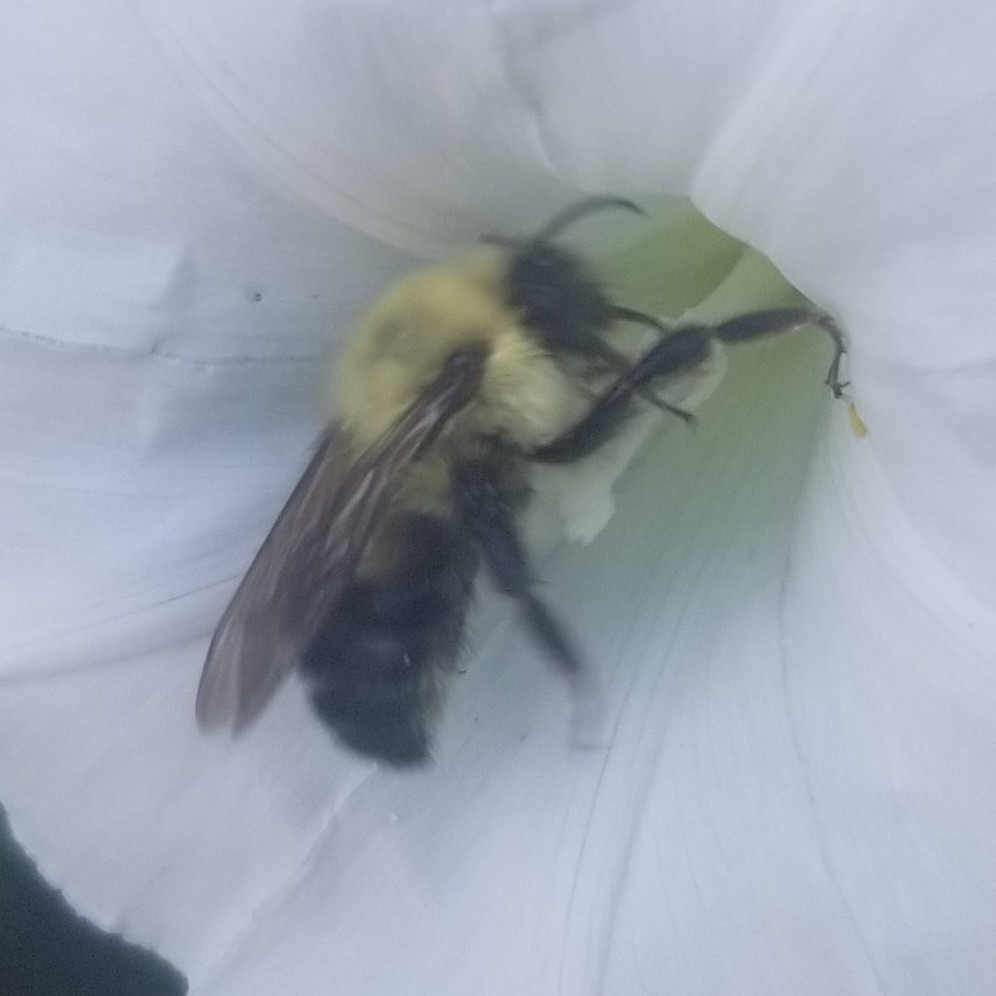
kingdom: Animalia
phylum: Arthropoda
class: Insecta
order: Hymenoptera
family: Apidae
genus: Bombus
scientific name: Bombus bimaculatus
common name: Two-spotted bumble bee
